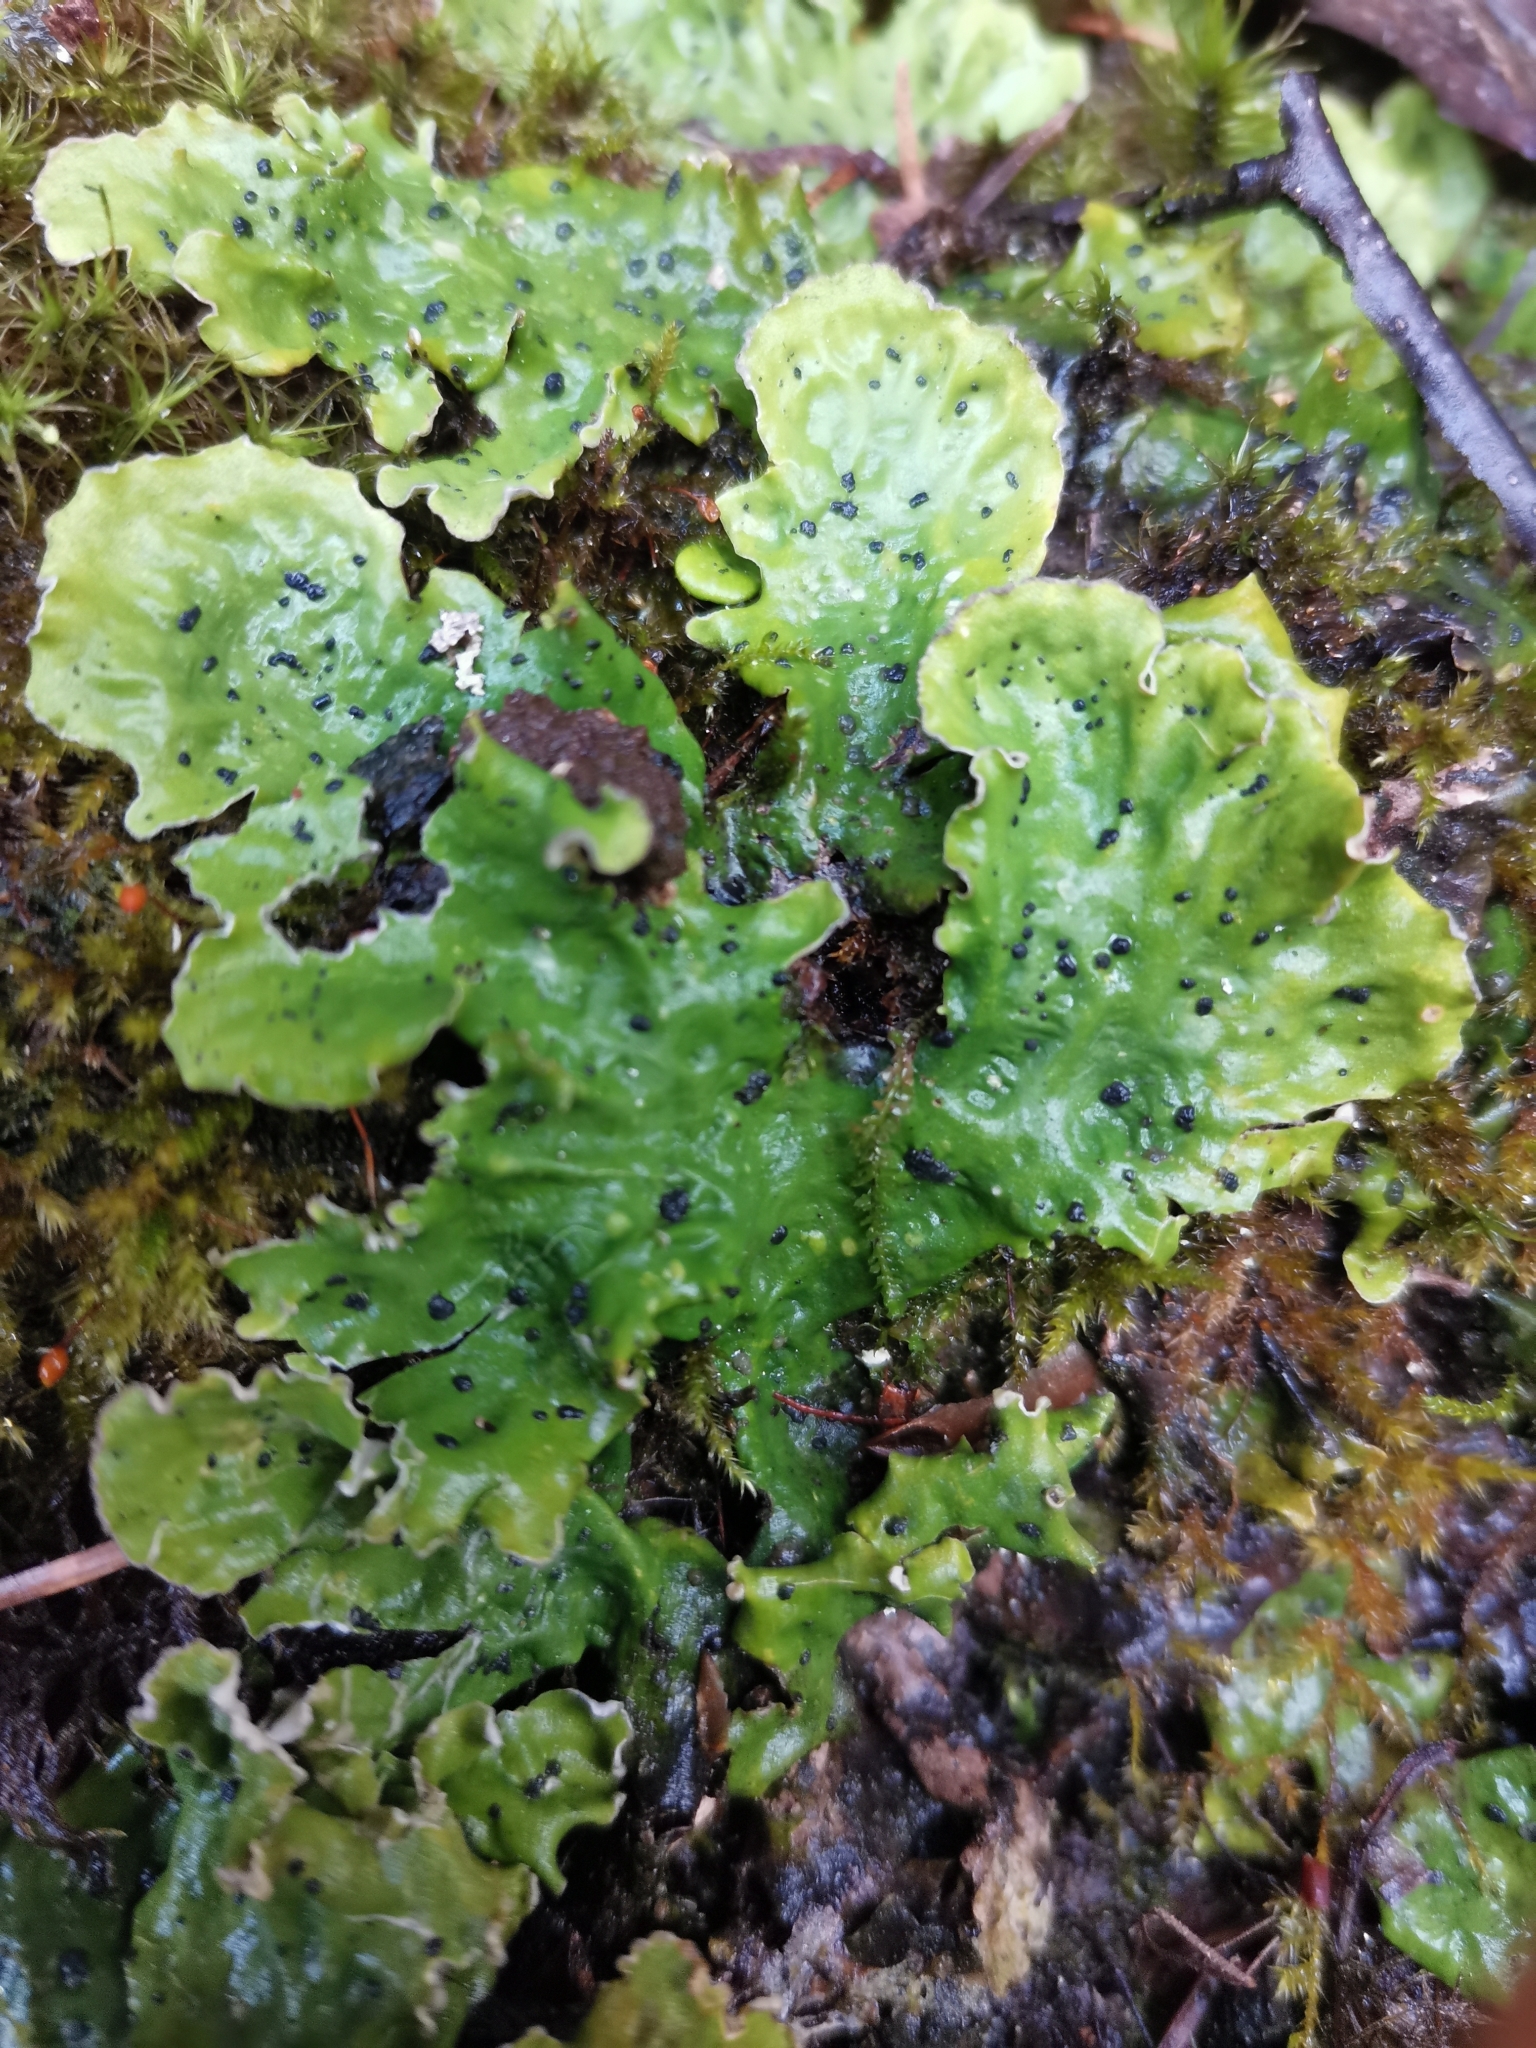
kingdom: Fungi
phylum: Ascomycota
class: Lecanoromycetes
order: Peltigerales
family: Peltigeraceae
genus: Peltigera
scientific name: Peltigera aphthosa
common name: Common freckle pelt lichen
